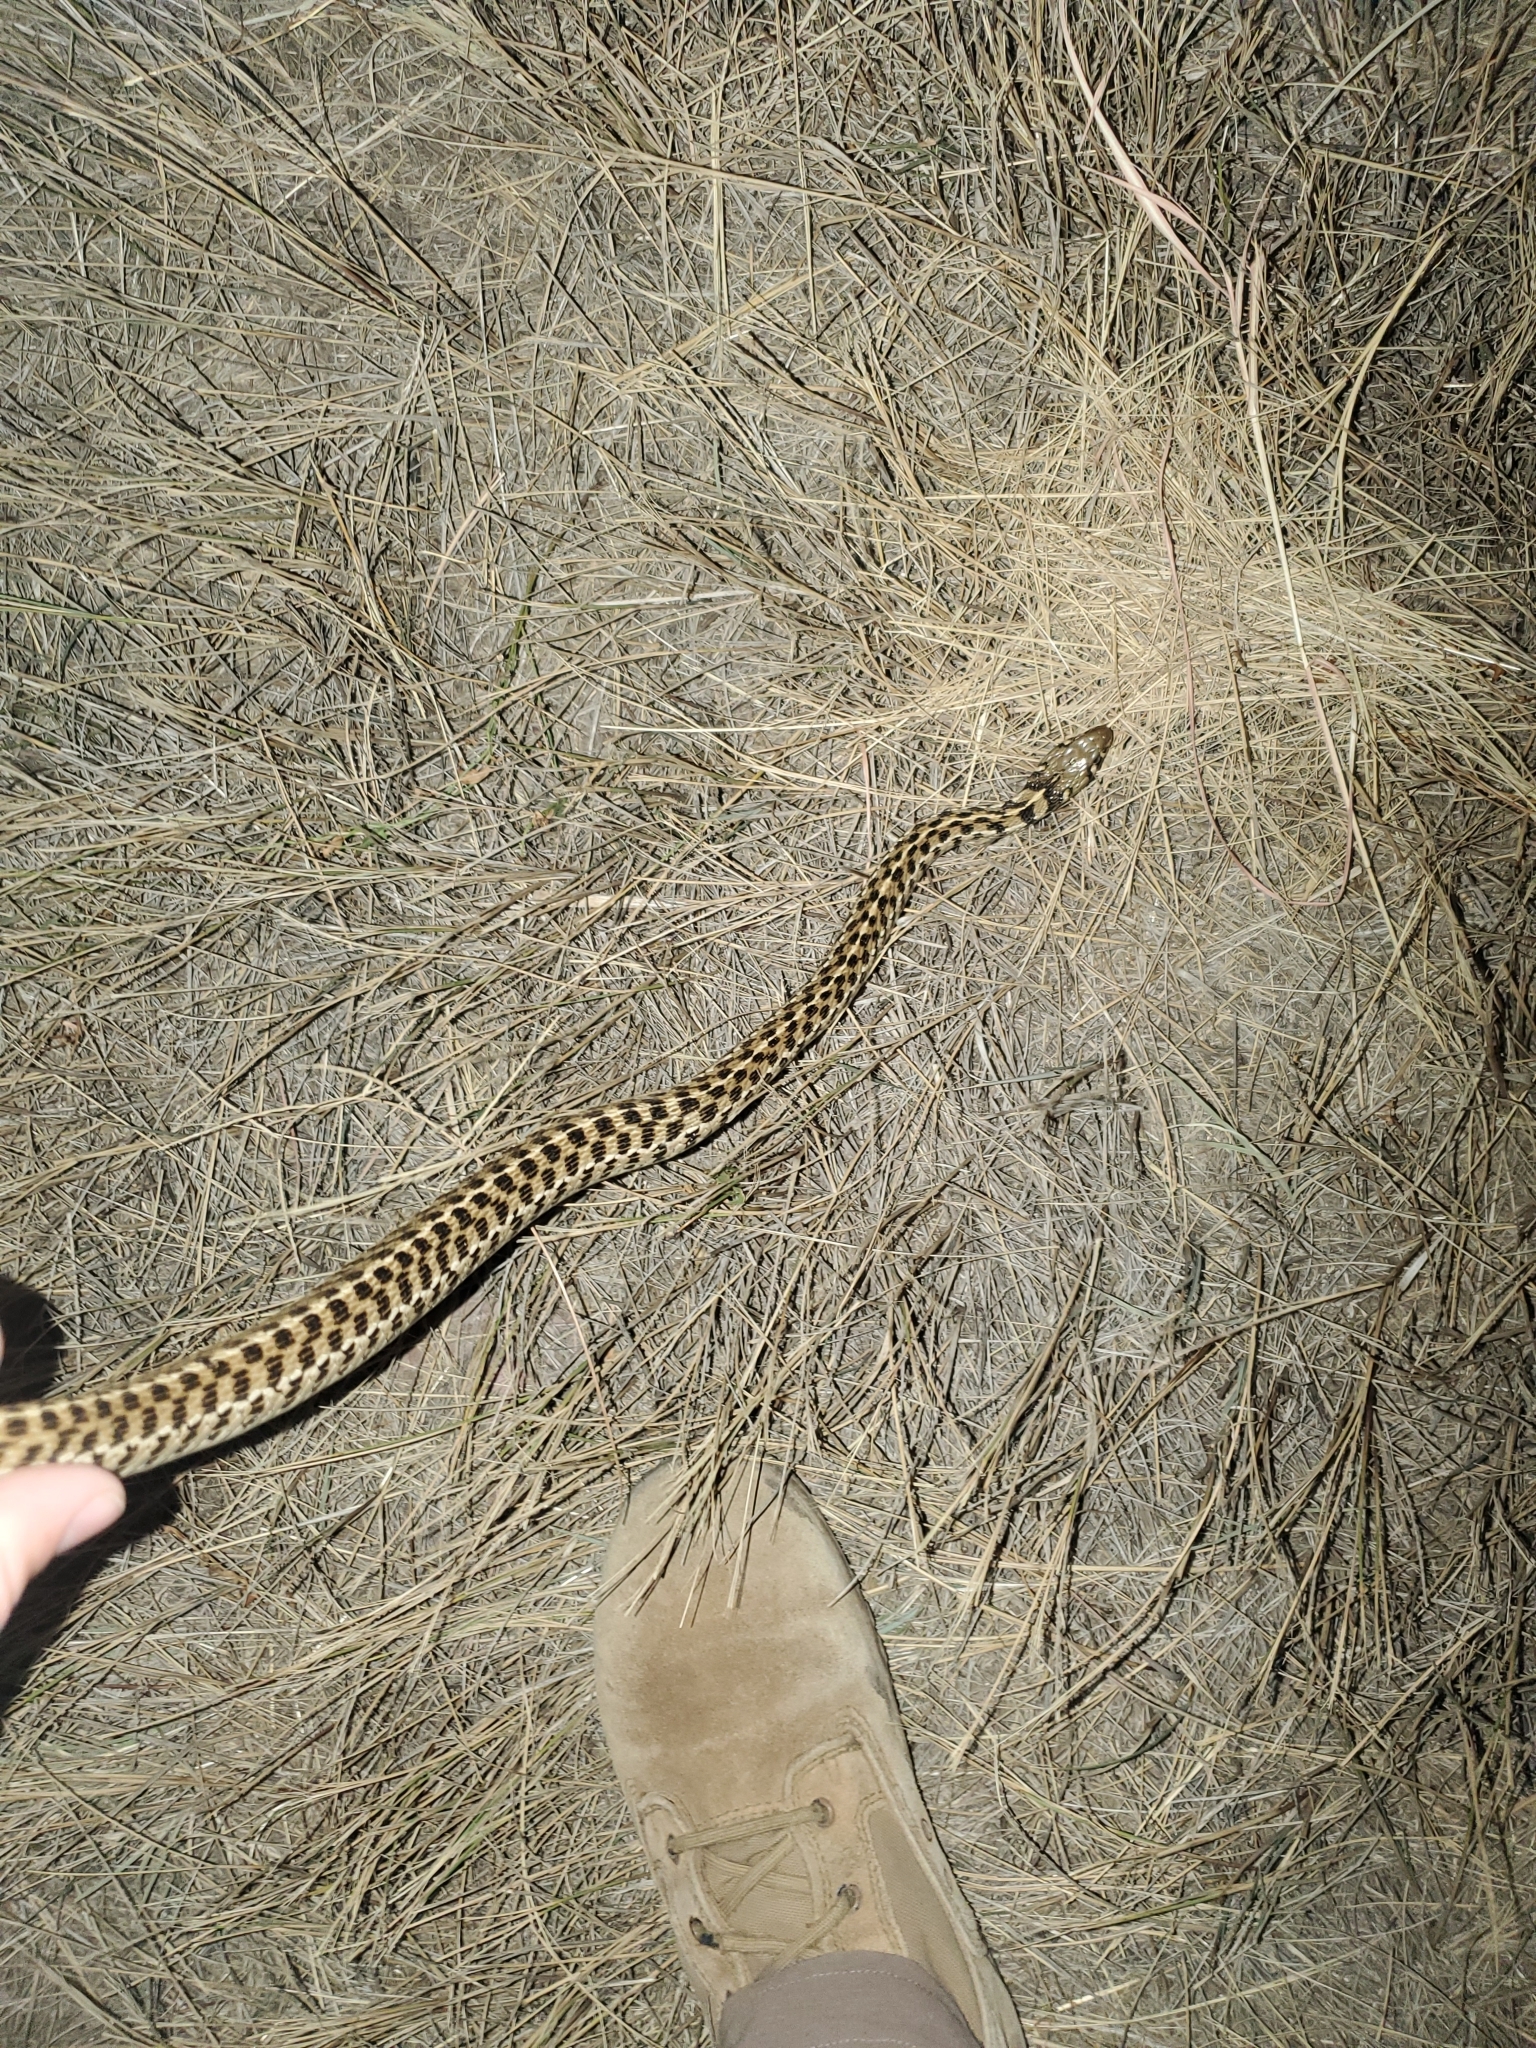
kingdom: Animalia
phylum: Chordata
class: Squamata
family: Colubridae
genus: Thamnophis
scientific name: Thamnophis marcianus
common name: Checkered garter snake
